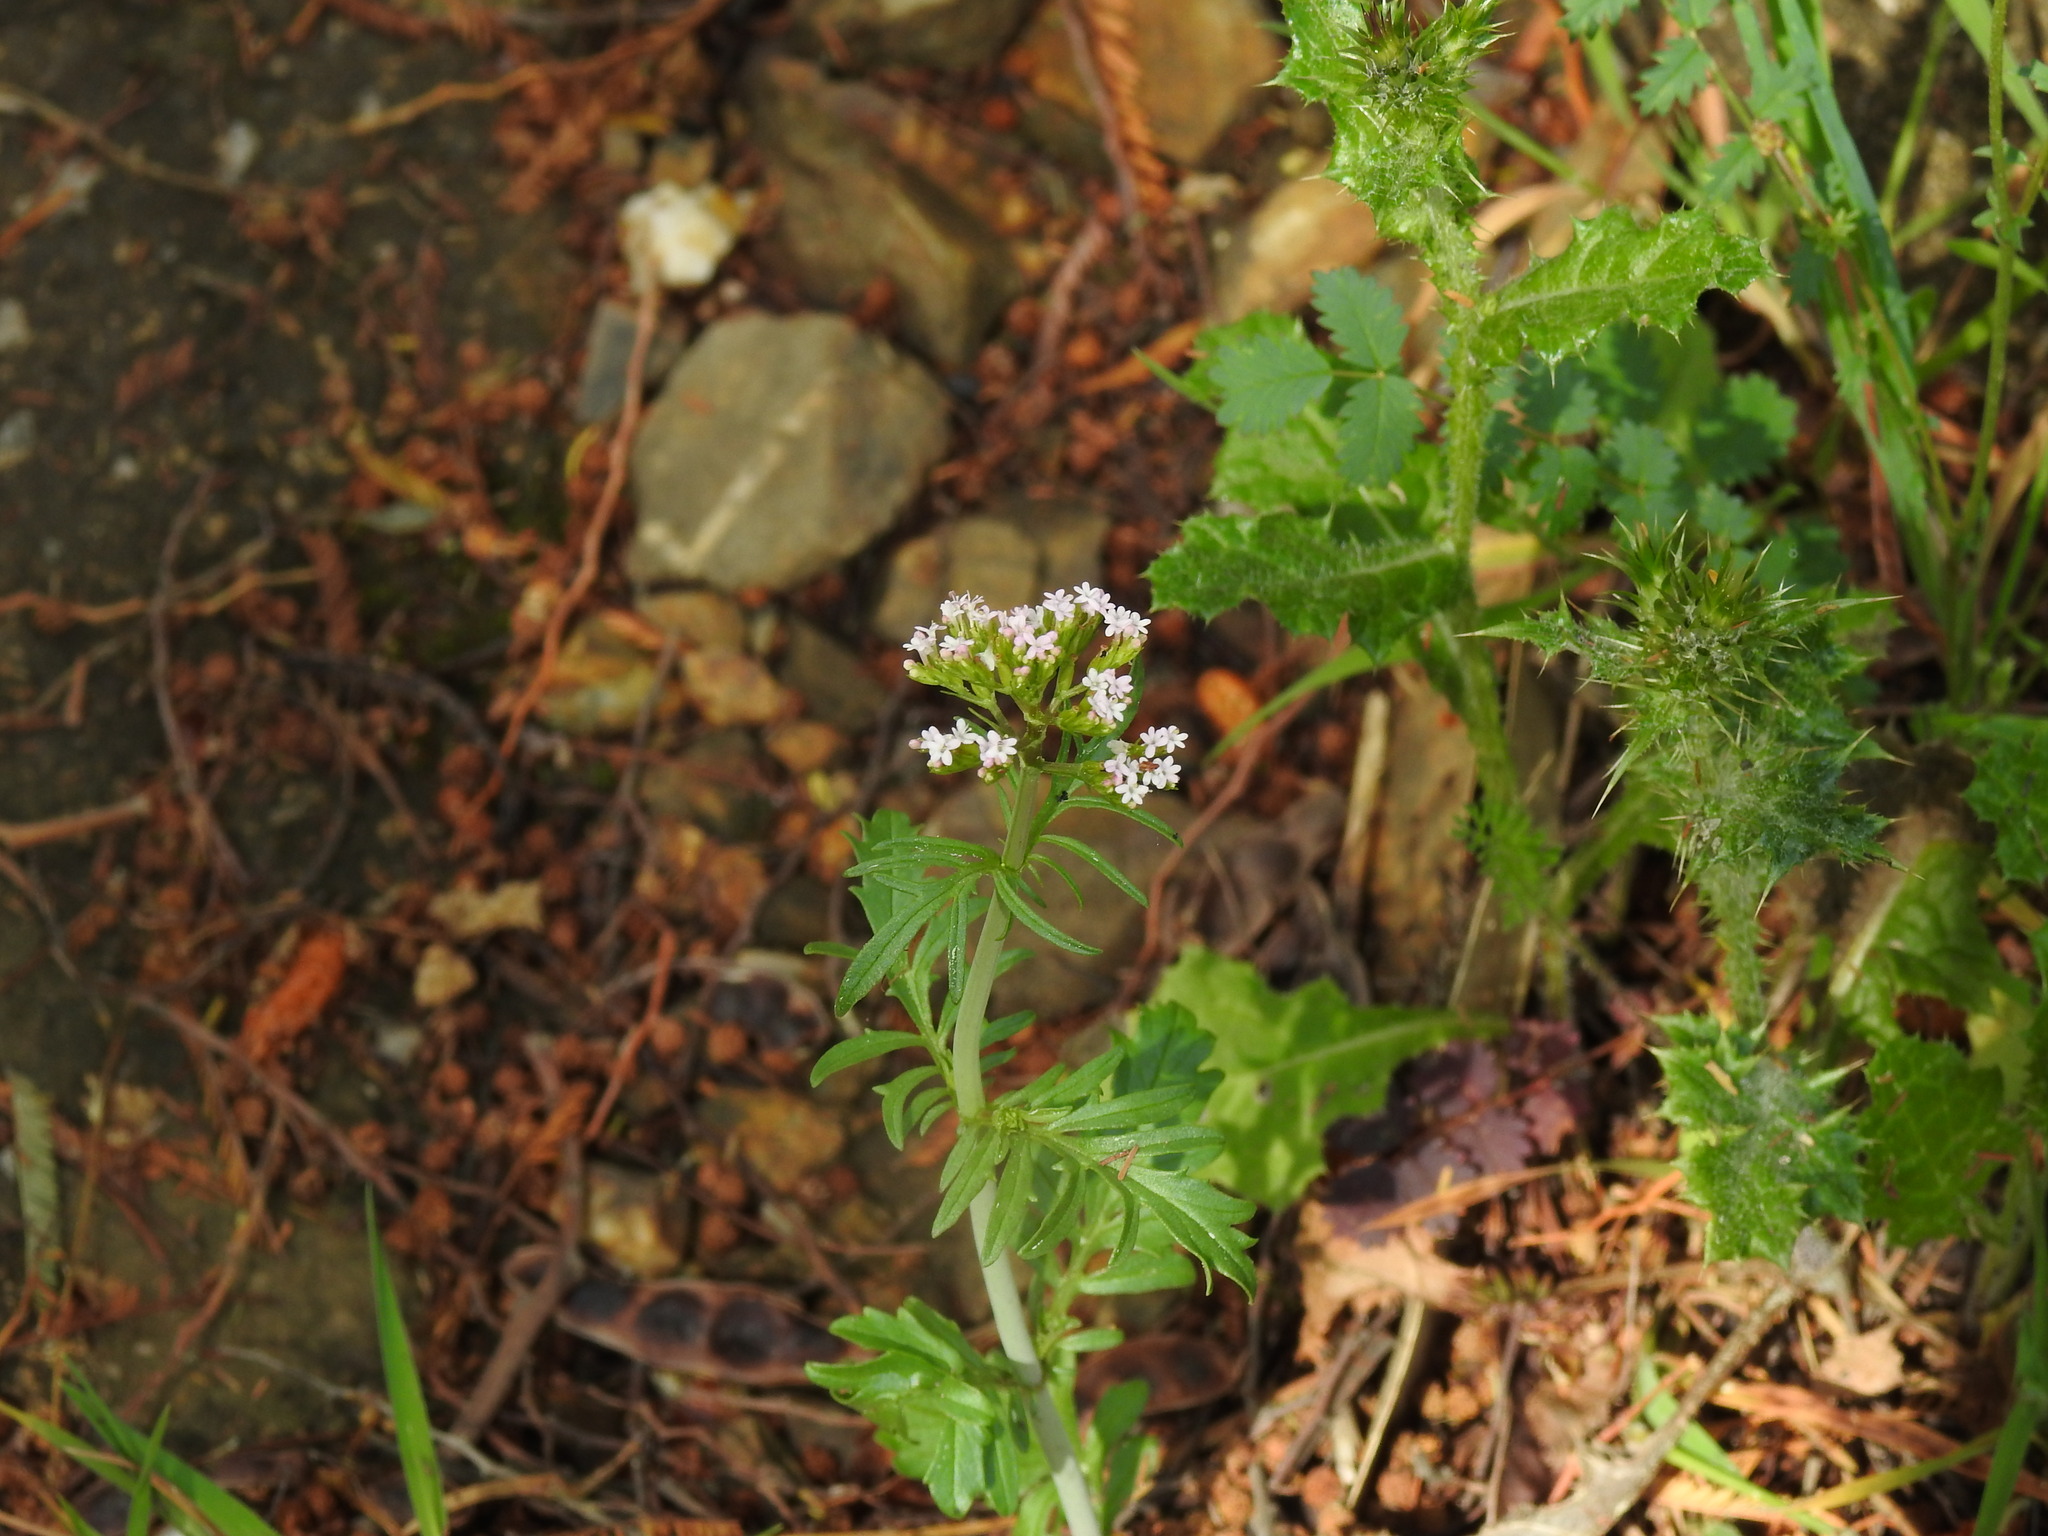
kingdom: Plantae
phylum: Tracheophyta
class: Magnoliopsida
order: Dipsacales
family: Caprifoliaceae
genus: Centranthus
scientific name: Centranthus calcitrapae
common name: Annual valerian
